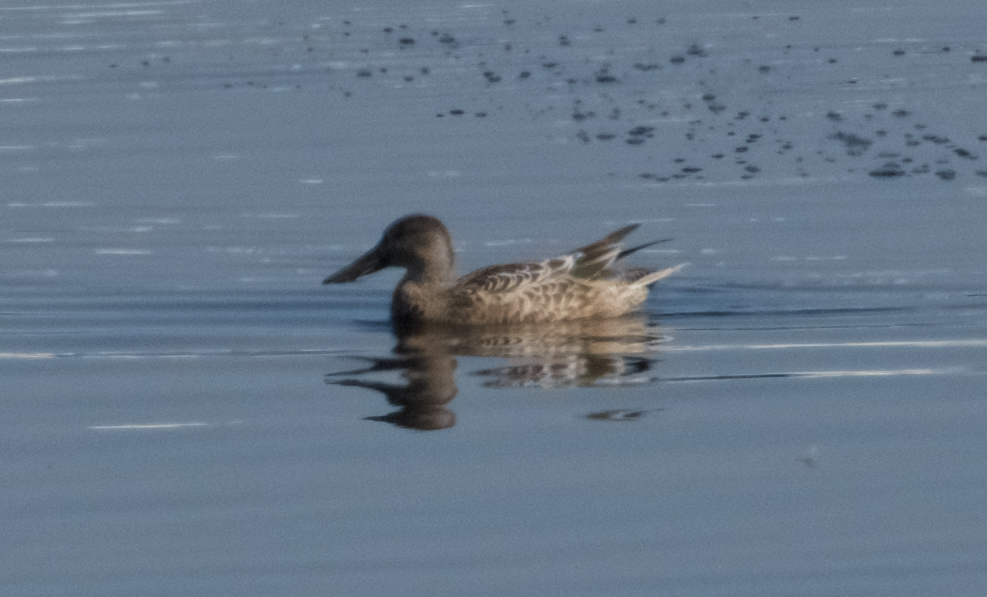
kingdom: Animalia
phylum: Chordata
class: Aves
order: Anseriformes
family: Anatidae
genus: Spatula
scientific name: Spatula clypeata
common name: Northern shoveler
